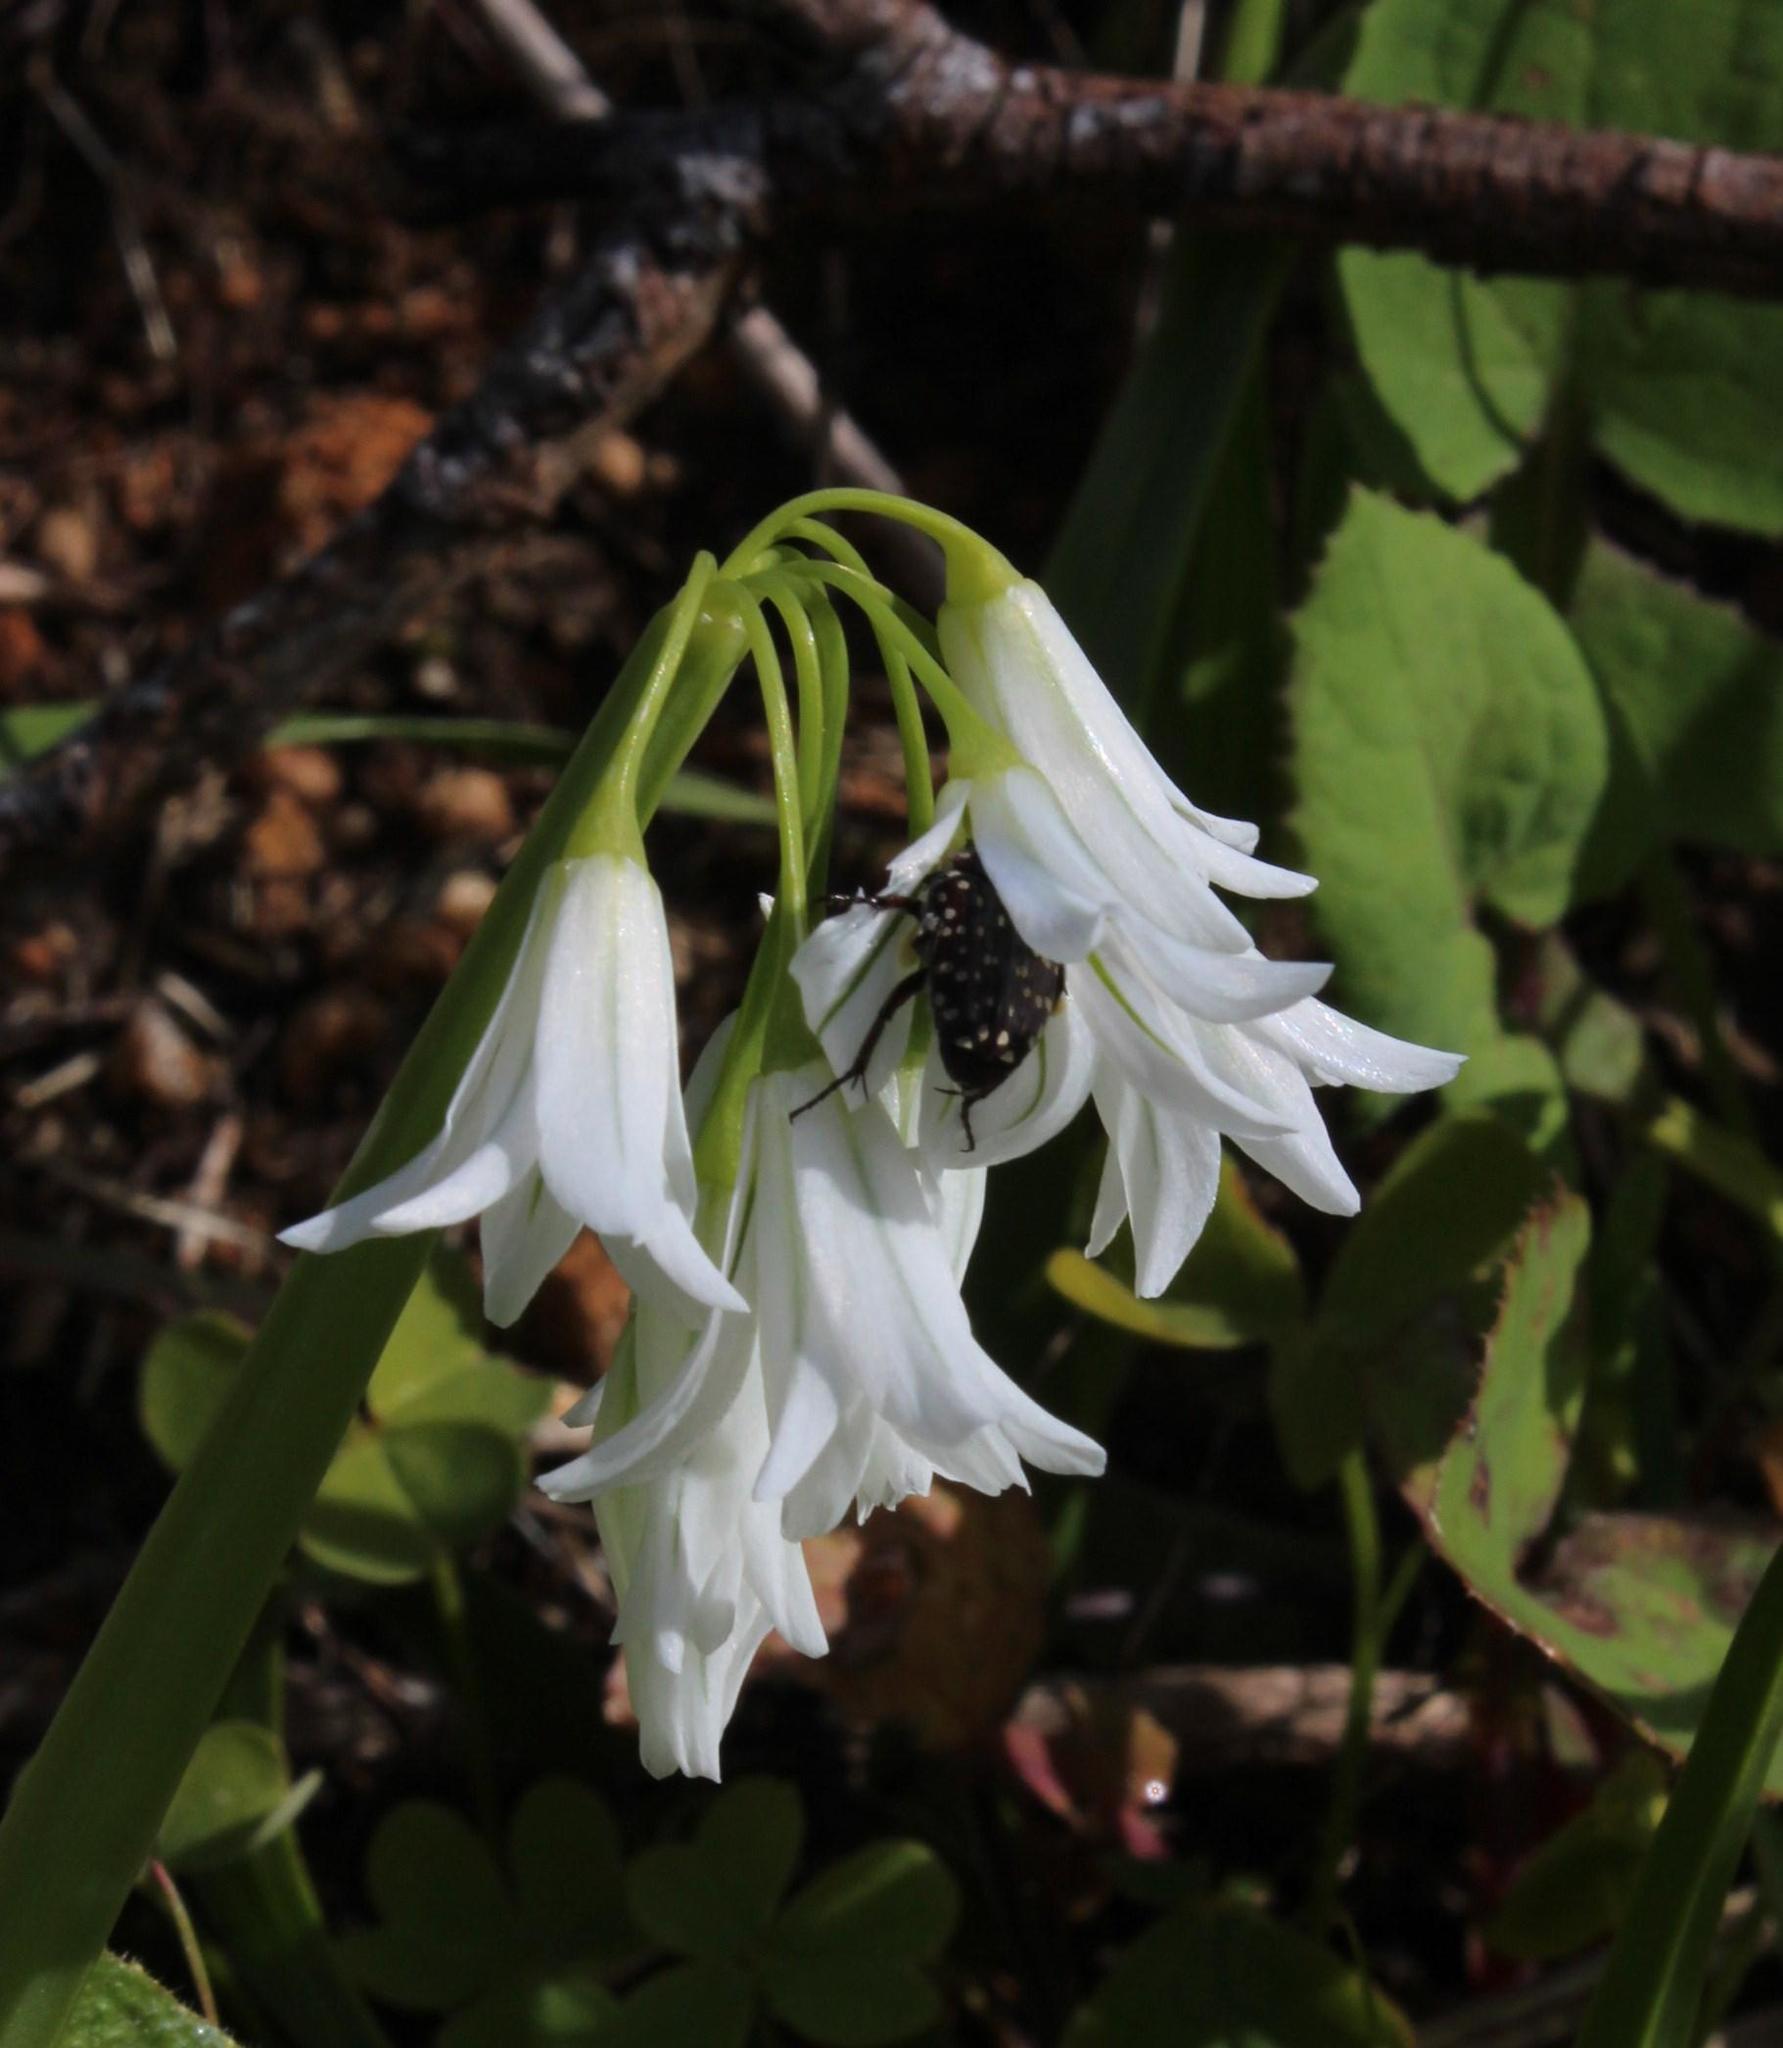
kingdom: Plantae
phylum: Tracheophyta
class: Liliopsida
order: Asparagales
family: Amaryllidaceae
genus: Allium
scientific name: Allium triquetrum
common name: Three-cornered garlic
